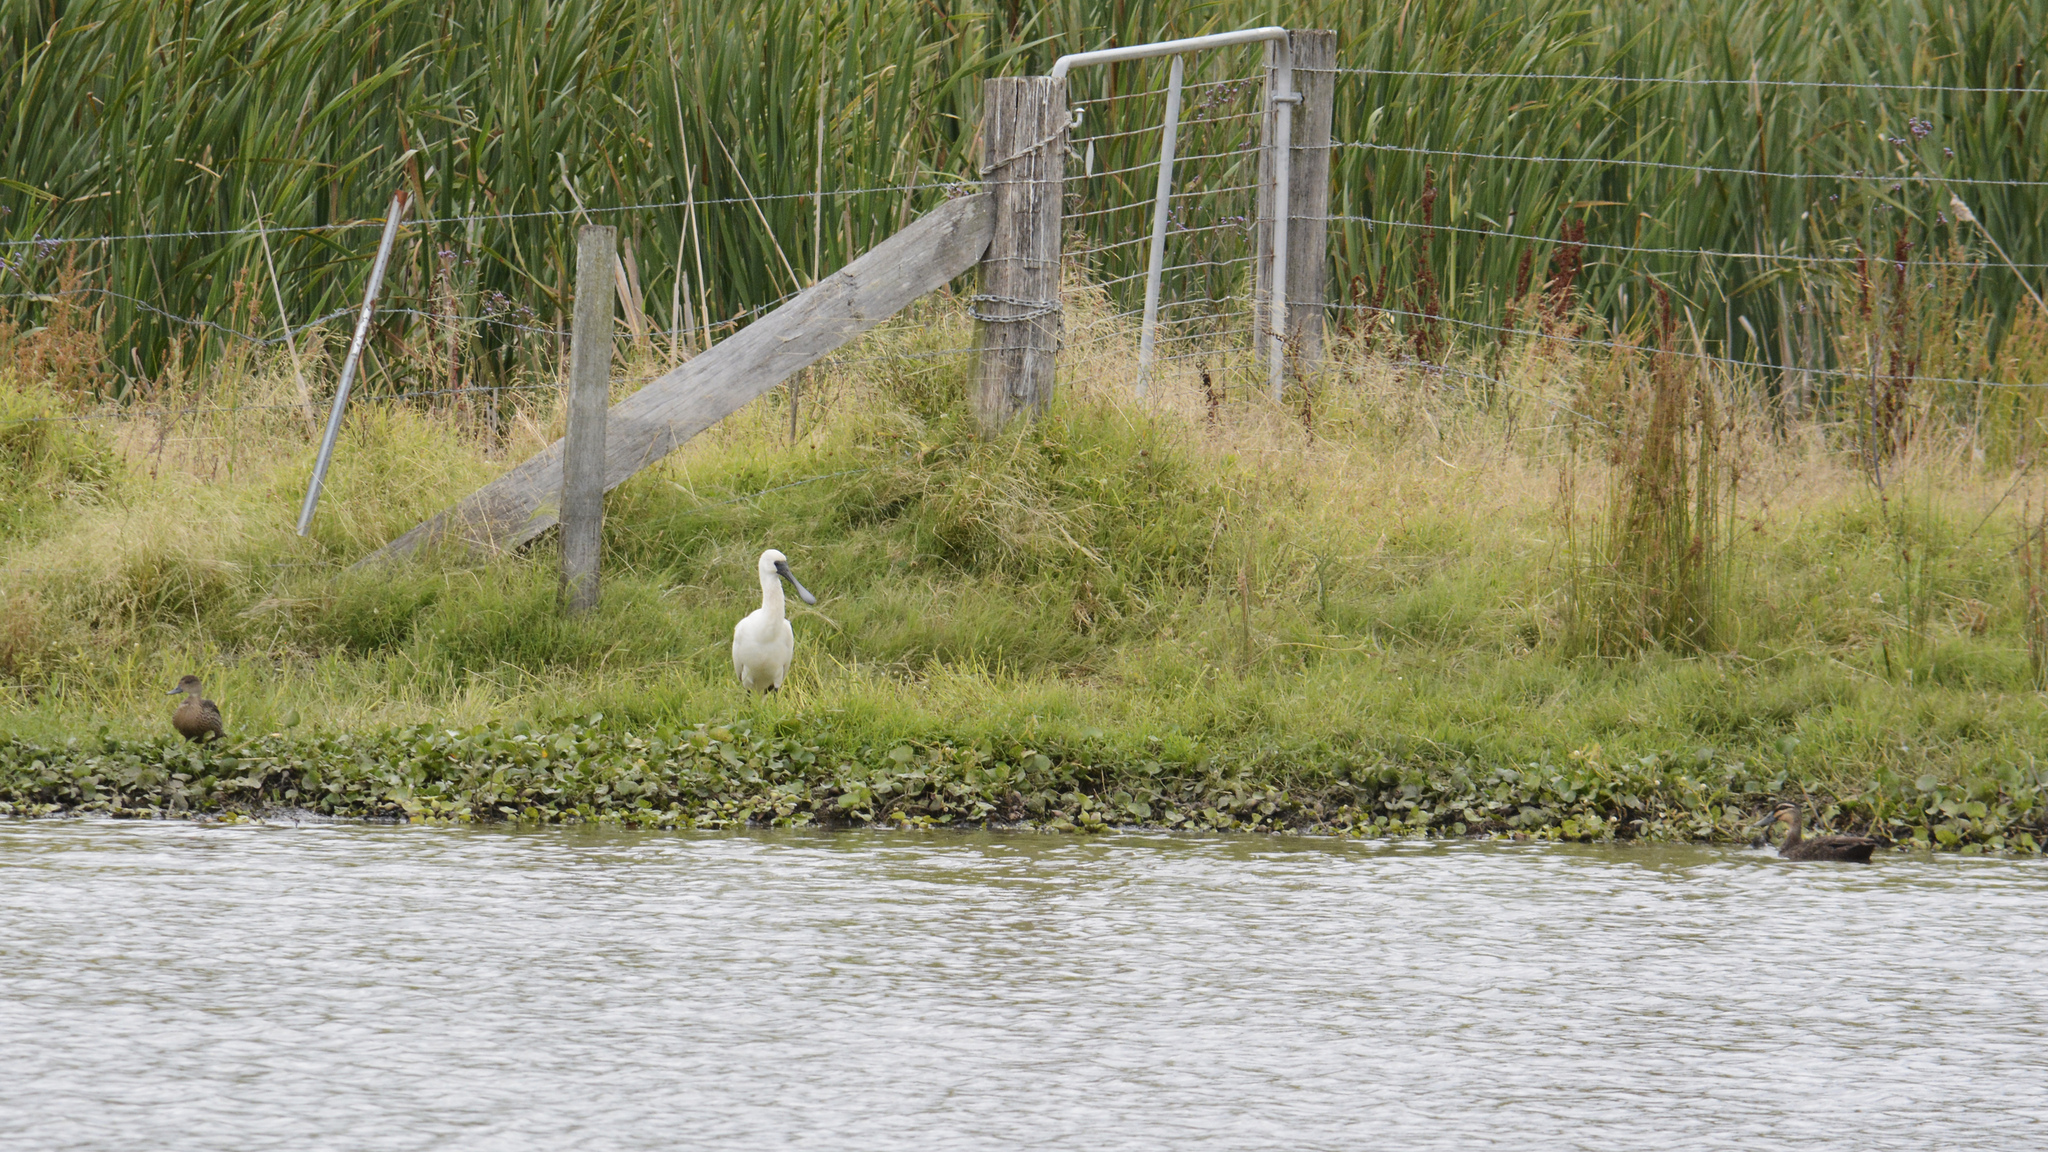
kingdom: Animalia
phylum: Chordata
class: Aves
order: Pelecaniformes
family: Threskiornithidae
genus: Platalea
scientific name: Platalea regia
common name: Royal spoonbill
